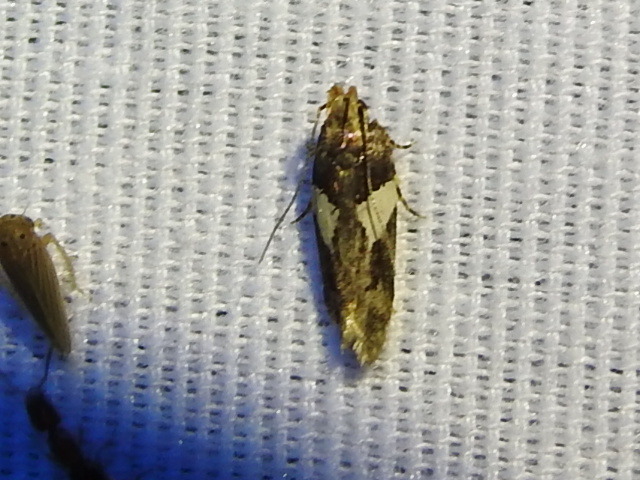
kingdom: Animalia
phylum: Arthropoda
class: Insecta
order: Lepidoptera
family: Gelechiidae
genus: Friseria
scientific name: Friseria acaciella
